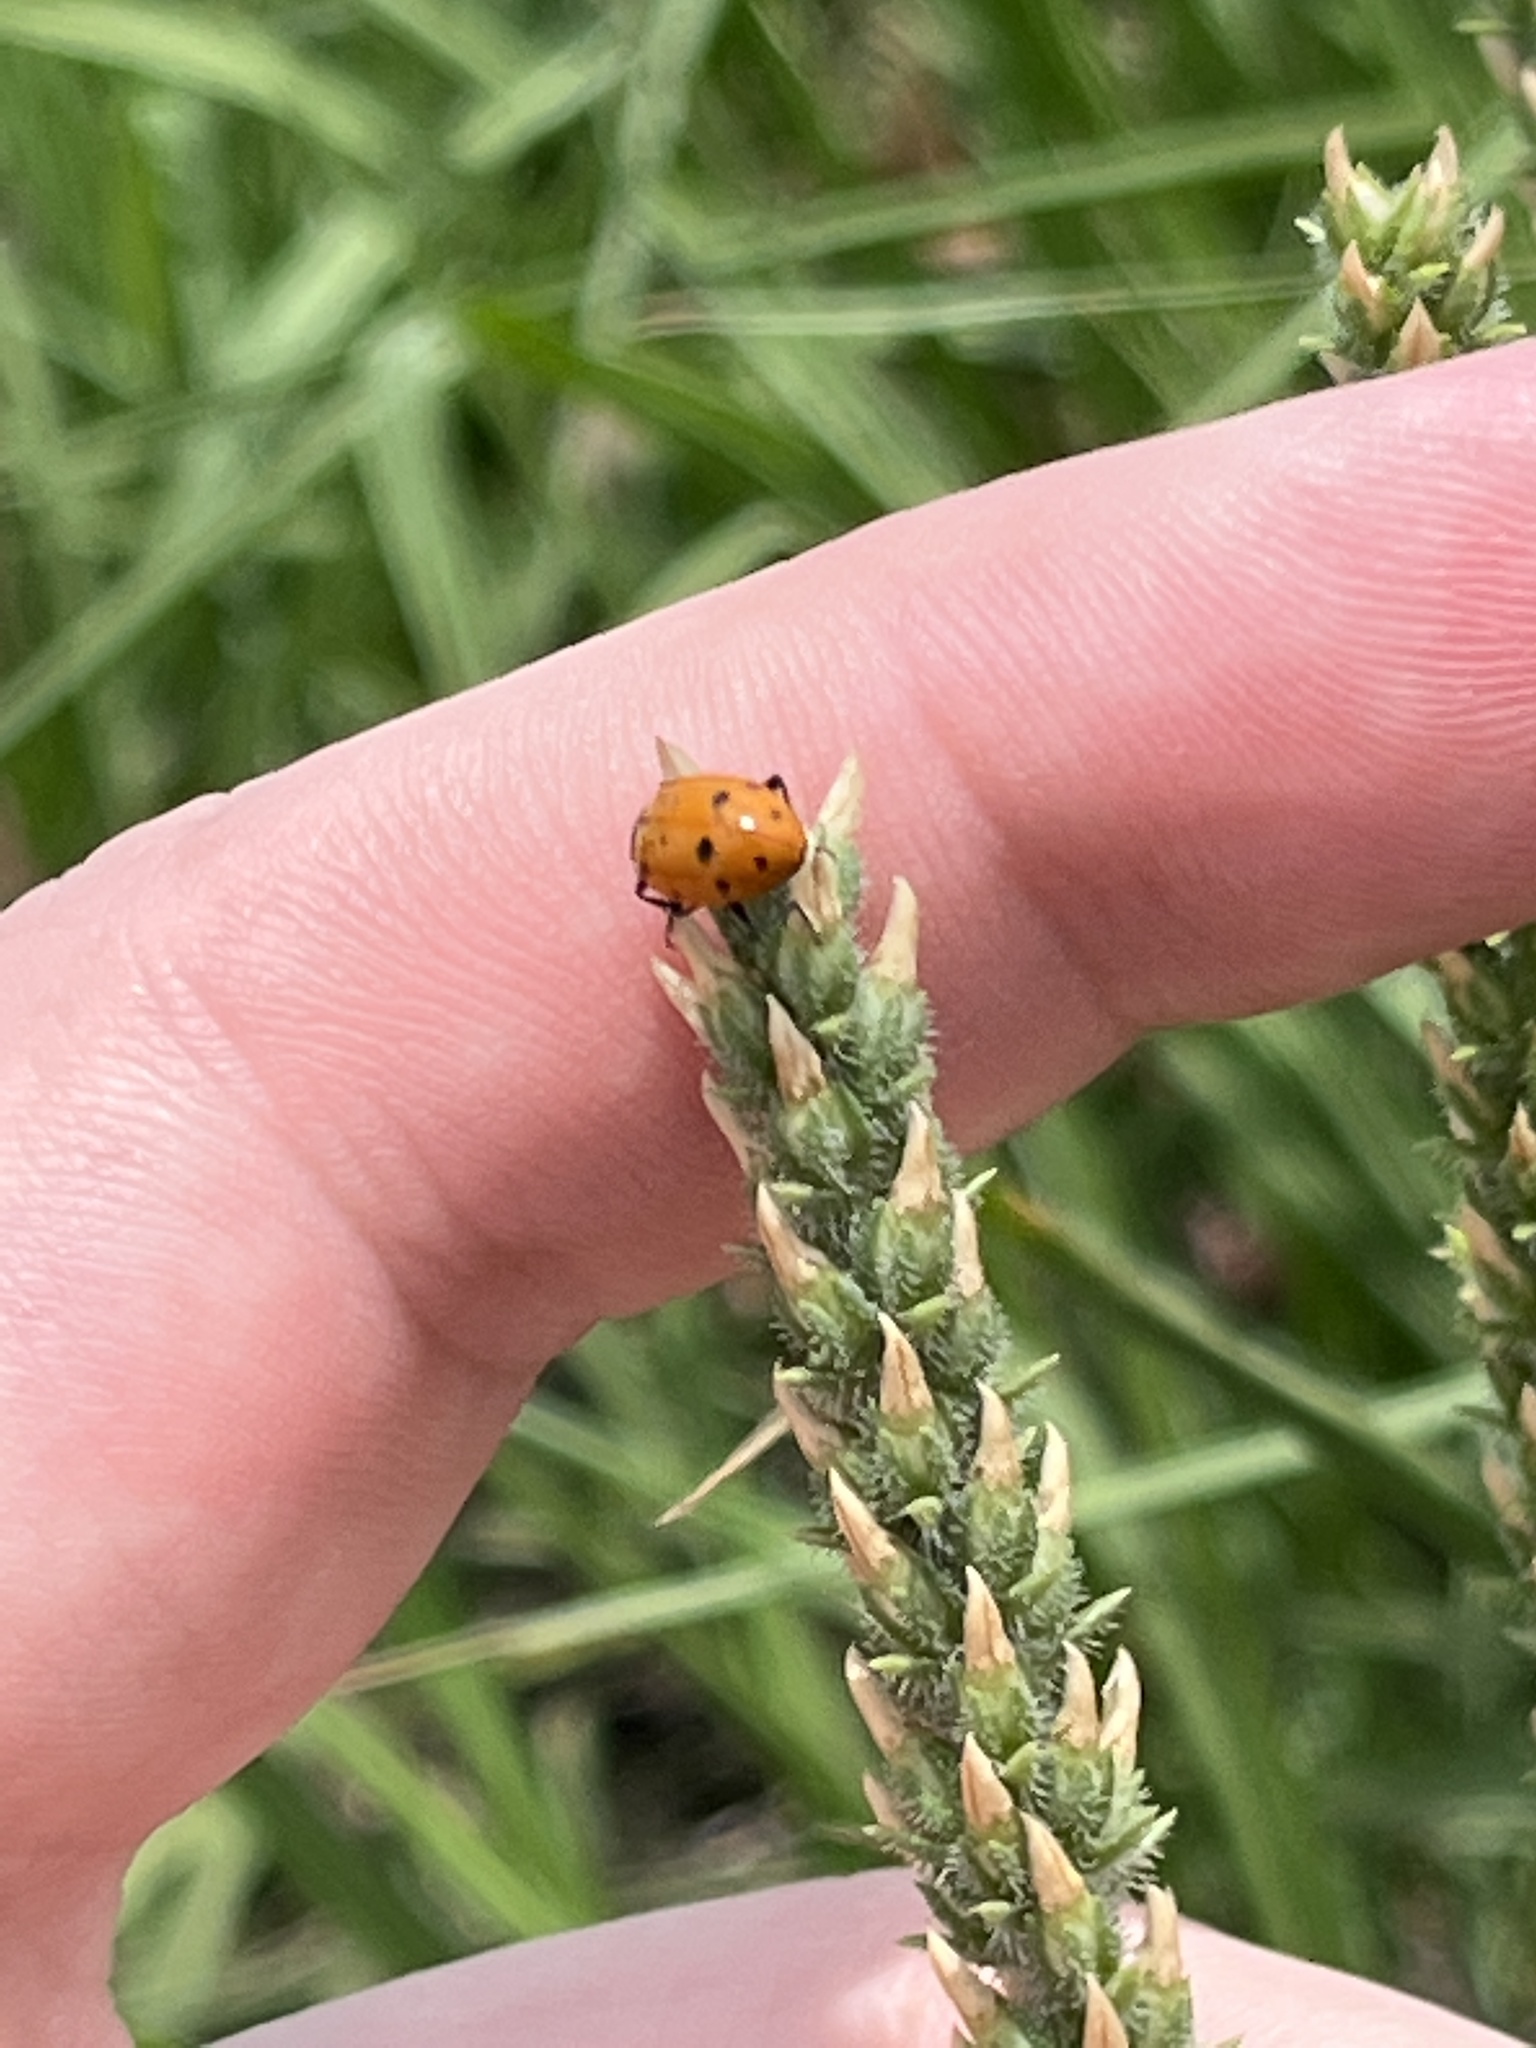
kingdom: Animalia
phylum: Arthropoda
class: Insecta
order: Coleoptera
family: Coccinellidae
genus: Hippodamia
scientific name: Hippodamia convergens
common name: Convergent lady beetle
